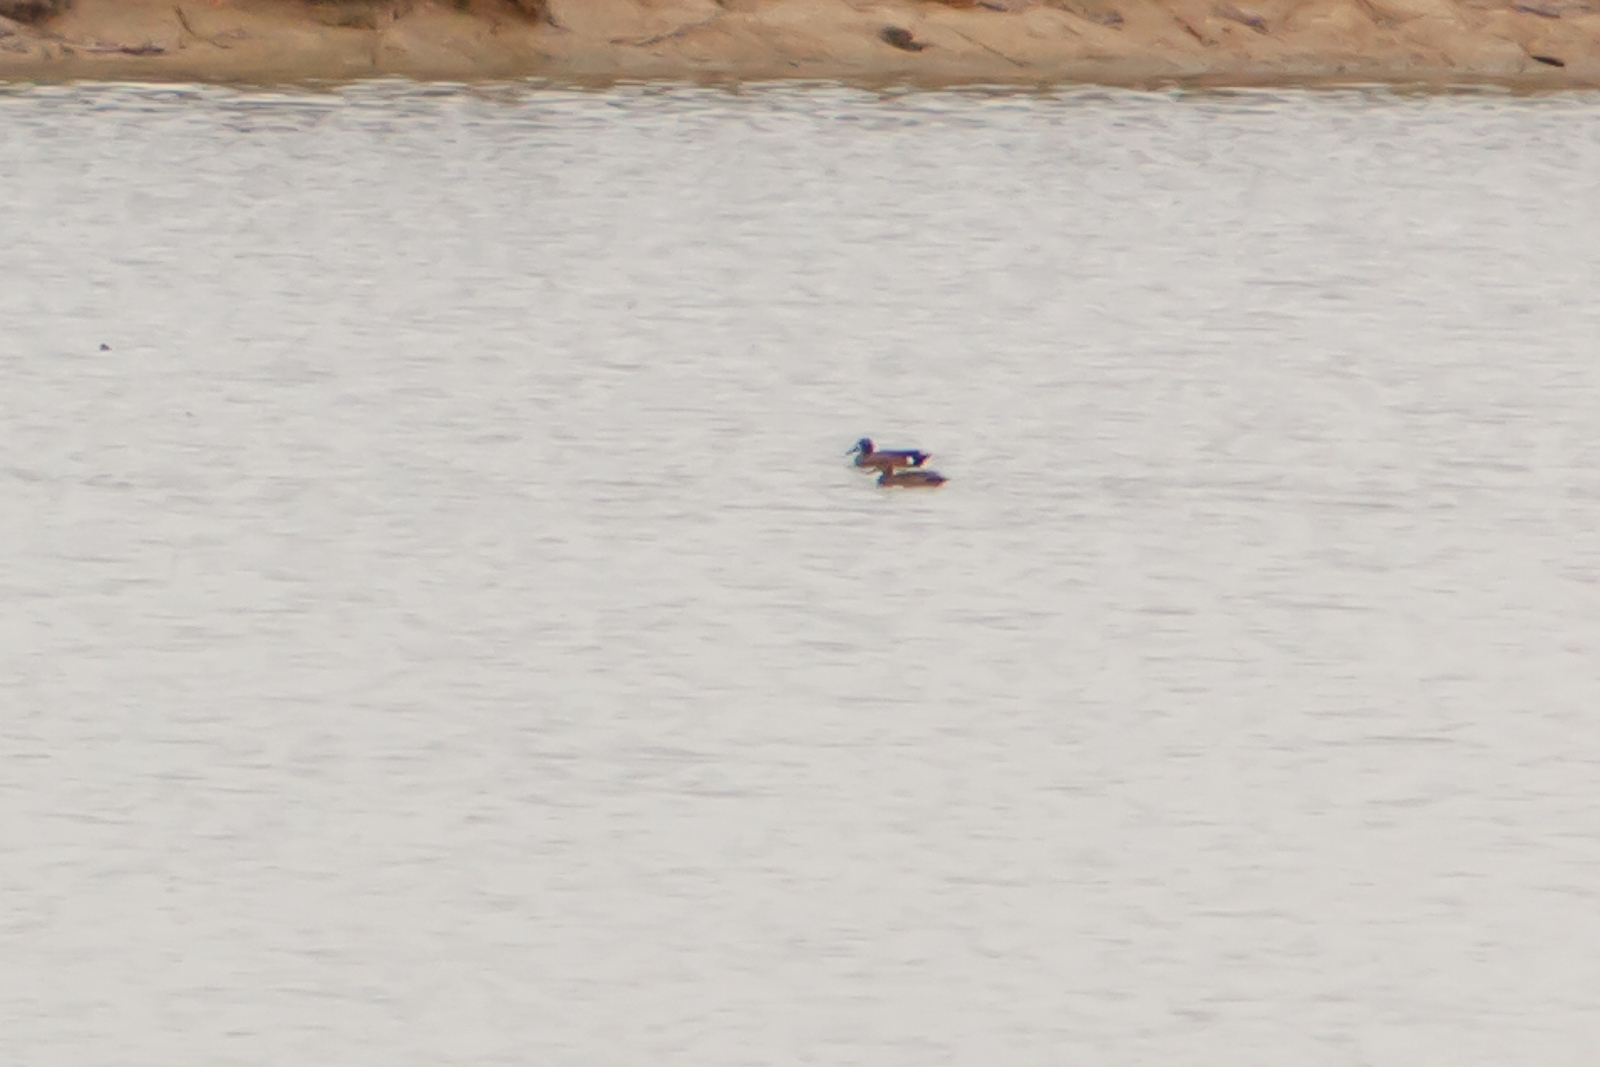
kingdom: Animalia
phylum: Chordata
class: Aves
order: Anseriformes
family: Anatidae
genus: Spatula
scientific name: Spatula discors
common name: Blue-winged teal
